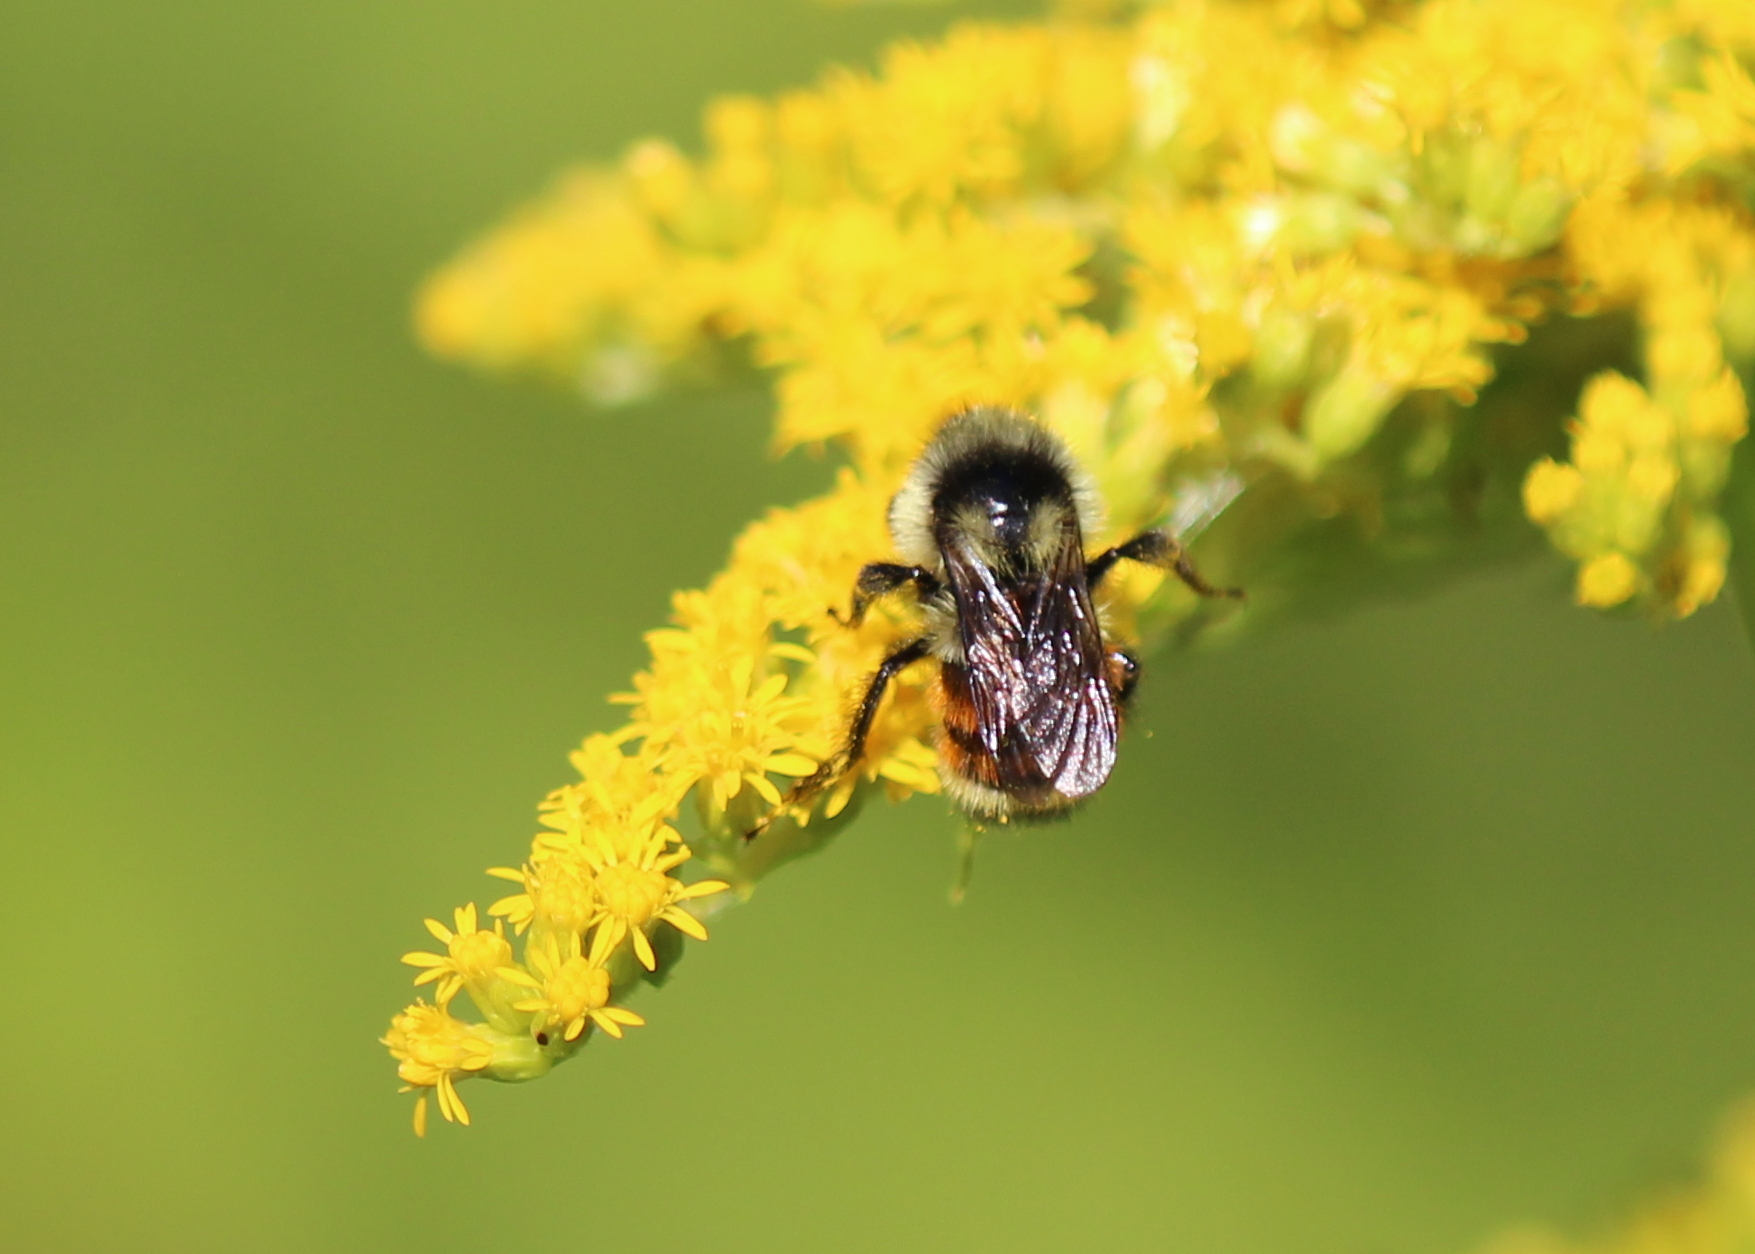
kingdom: Animalia
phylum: Arthropoda
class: Insecta
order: Hymenoptera
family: Apidae
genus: Bombus
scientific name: Bombus ternarius
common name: Tri-colored bumble bee
